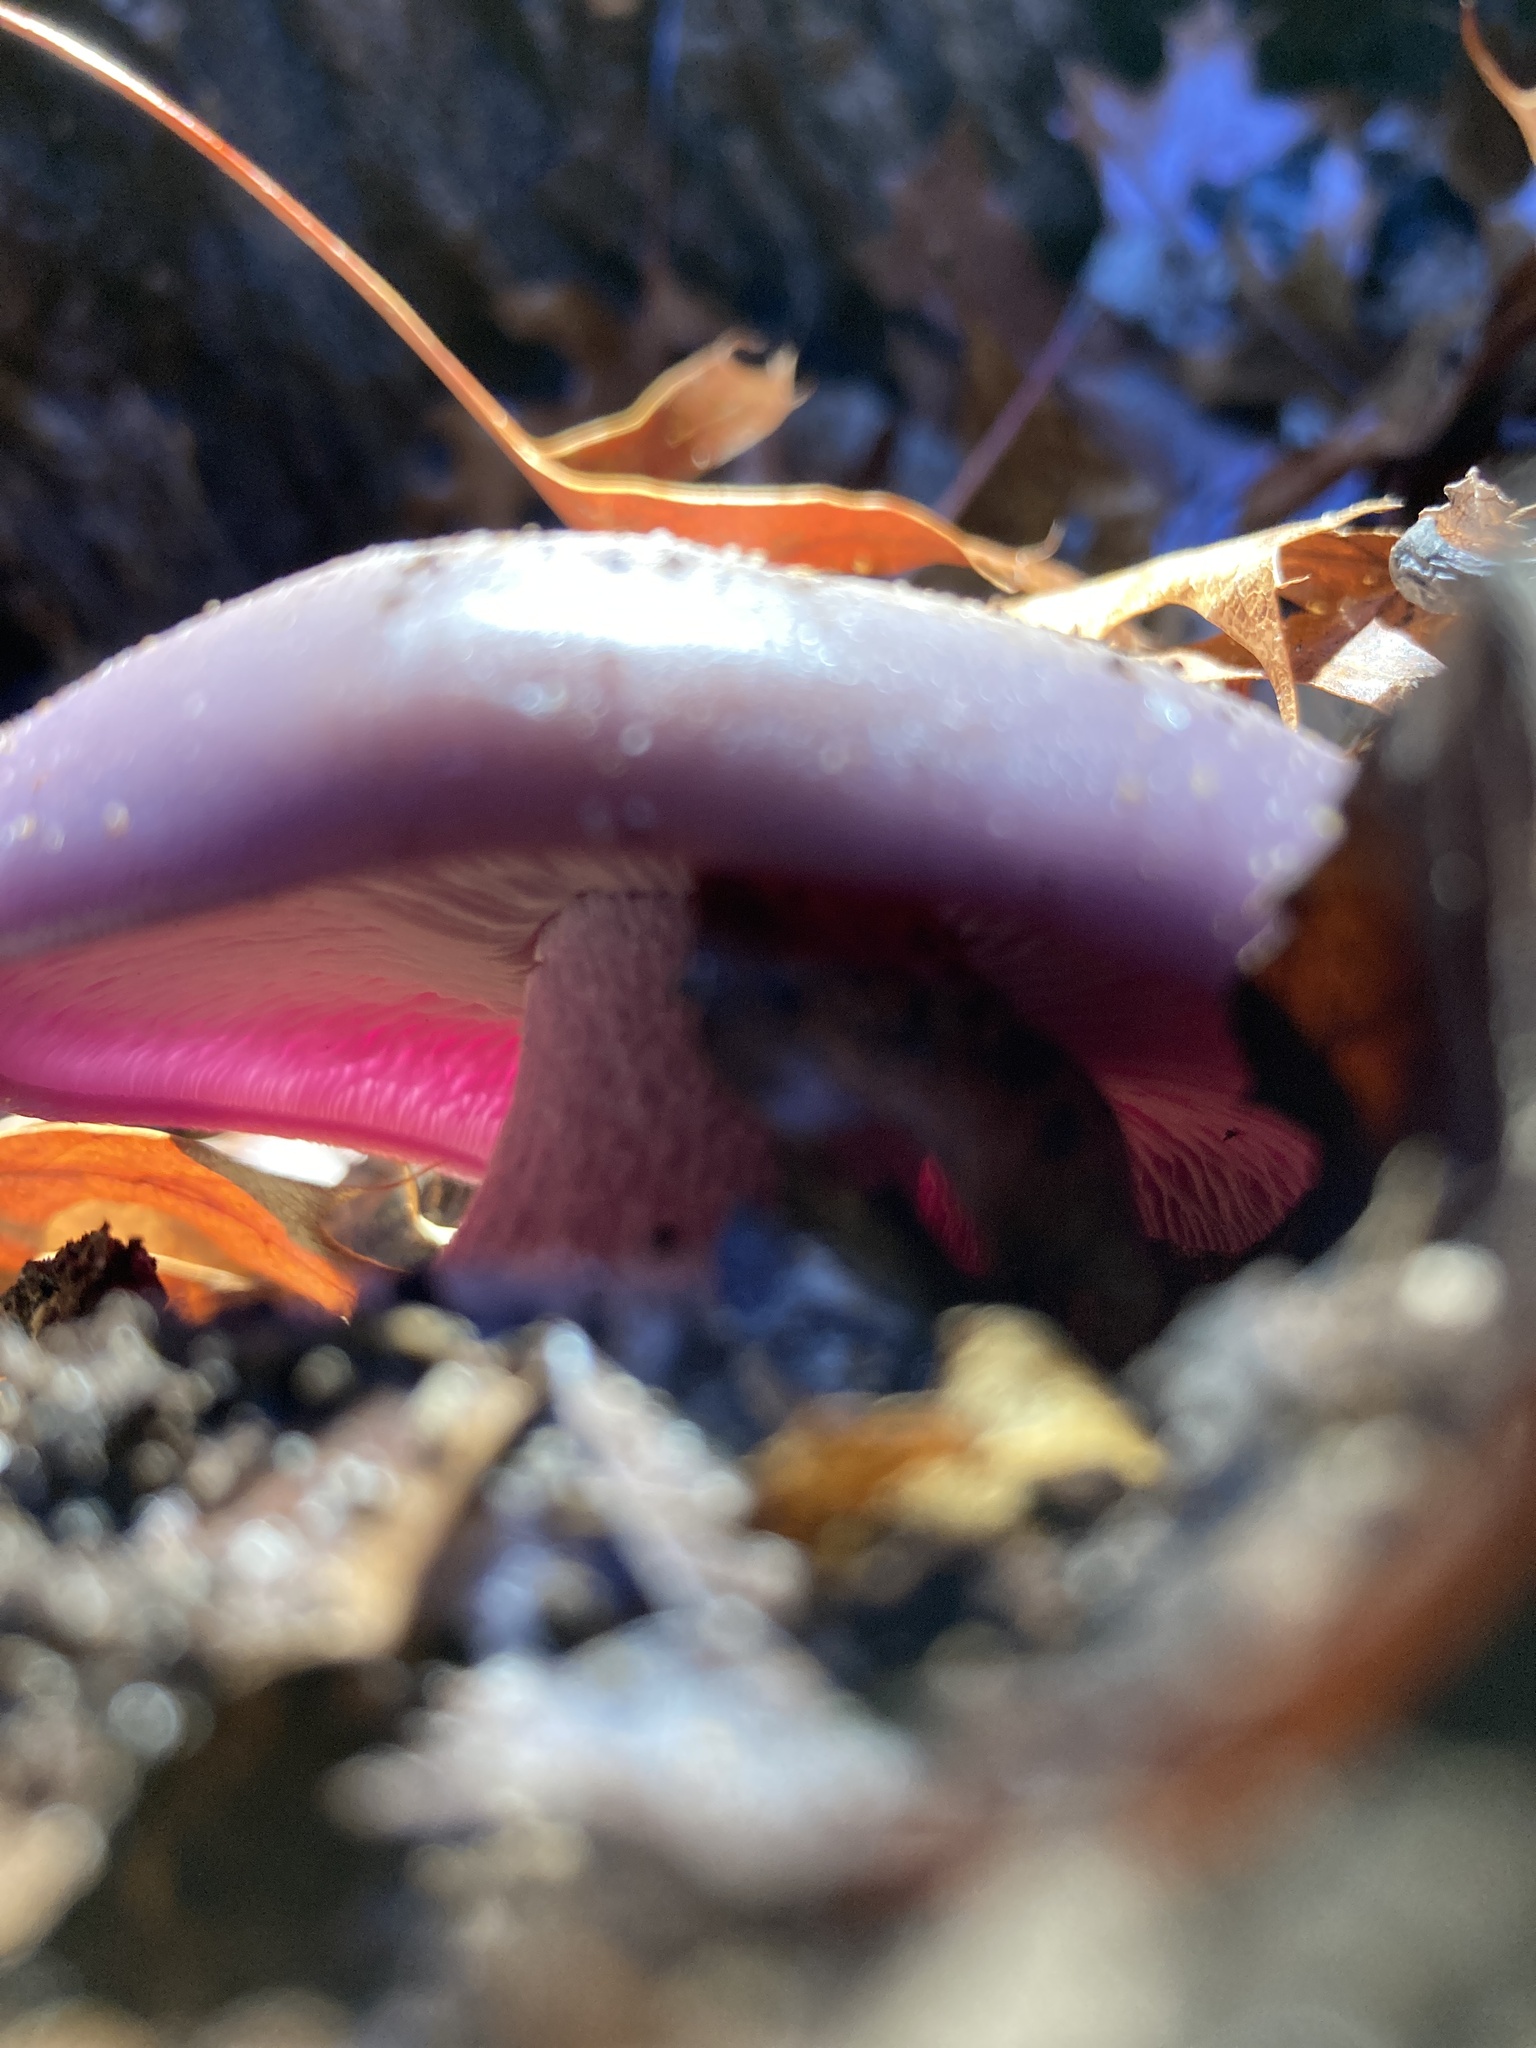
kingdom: Fungi
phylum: Basidiomycota
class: Agaricomycetes
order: Agaricales
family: Tricholomataceae
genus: Collybia
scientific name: Collybia
